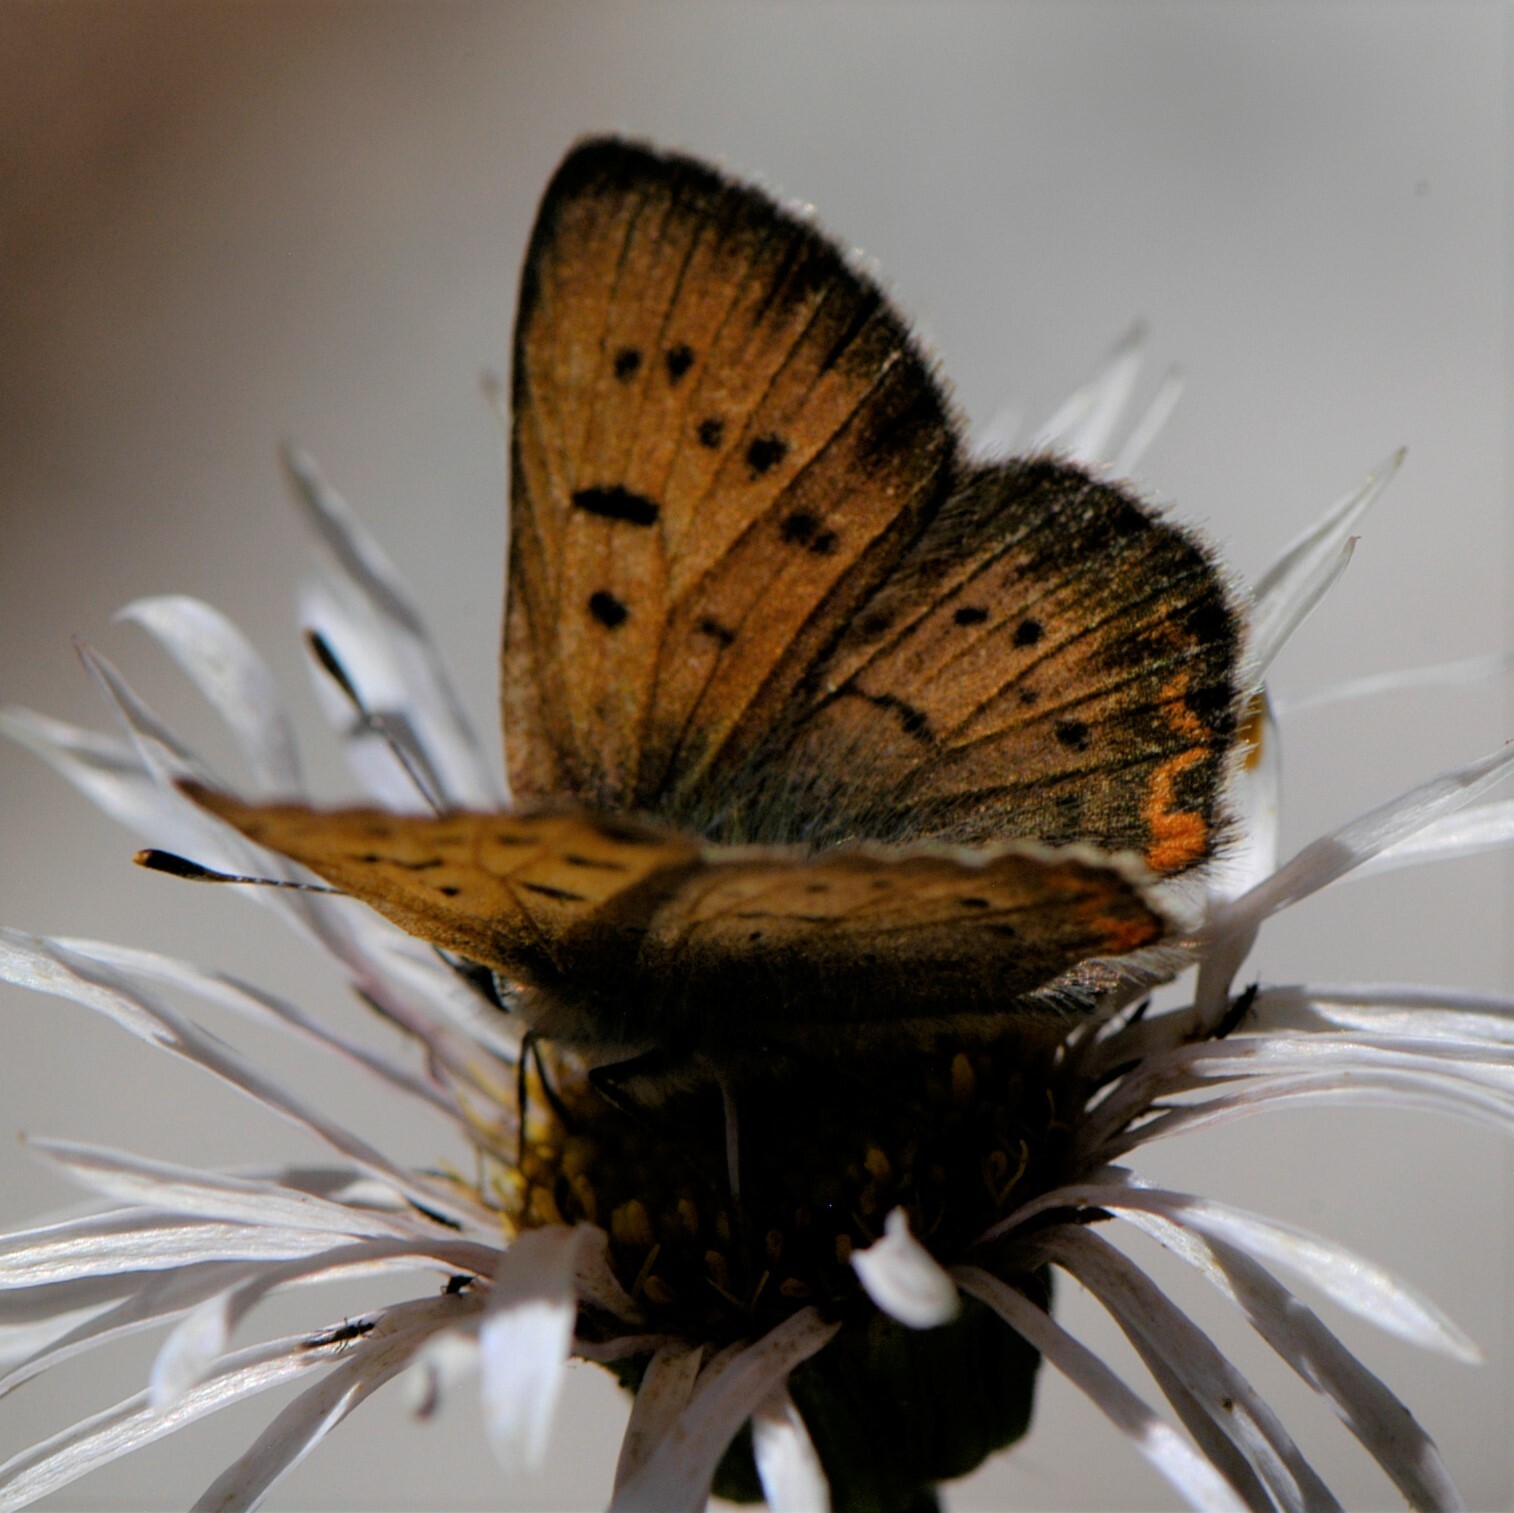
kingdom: Animalia
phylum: Arthropoda
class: Insecta
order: Lepidoptera
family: Lycaenidae
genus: Tharsalea
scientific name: Tharsalea dorcas
